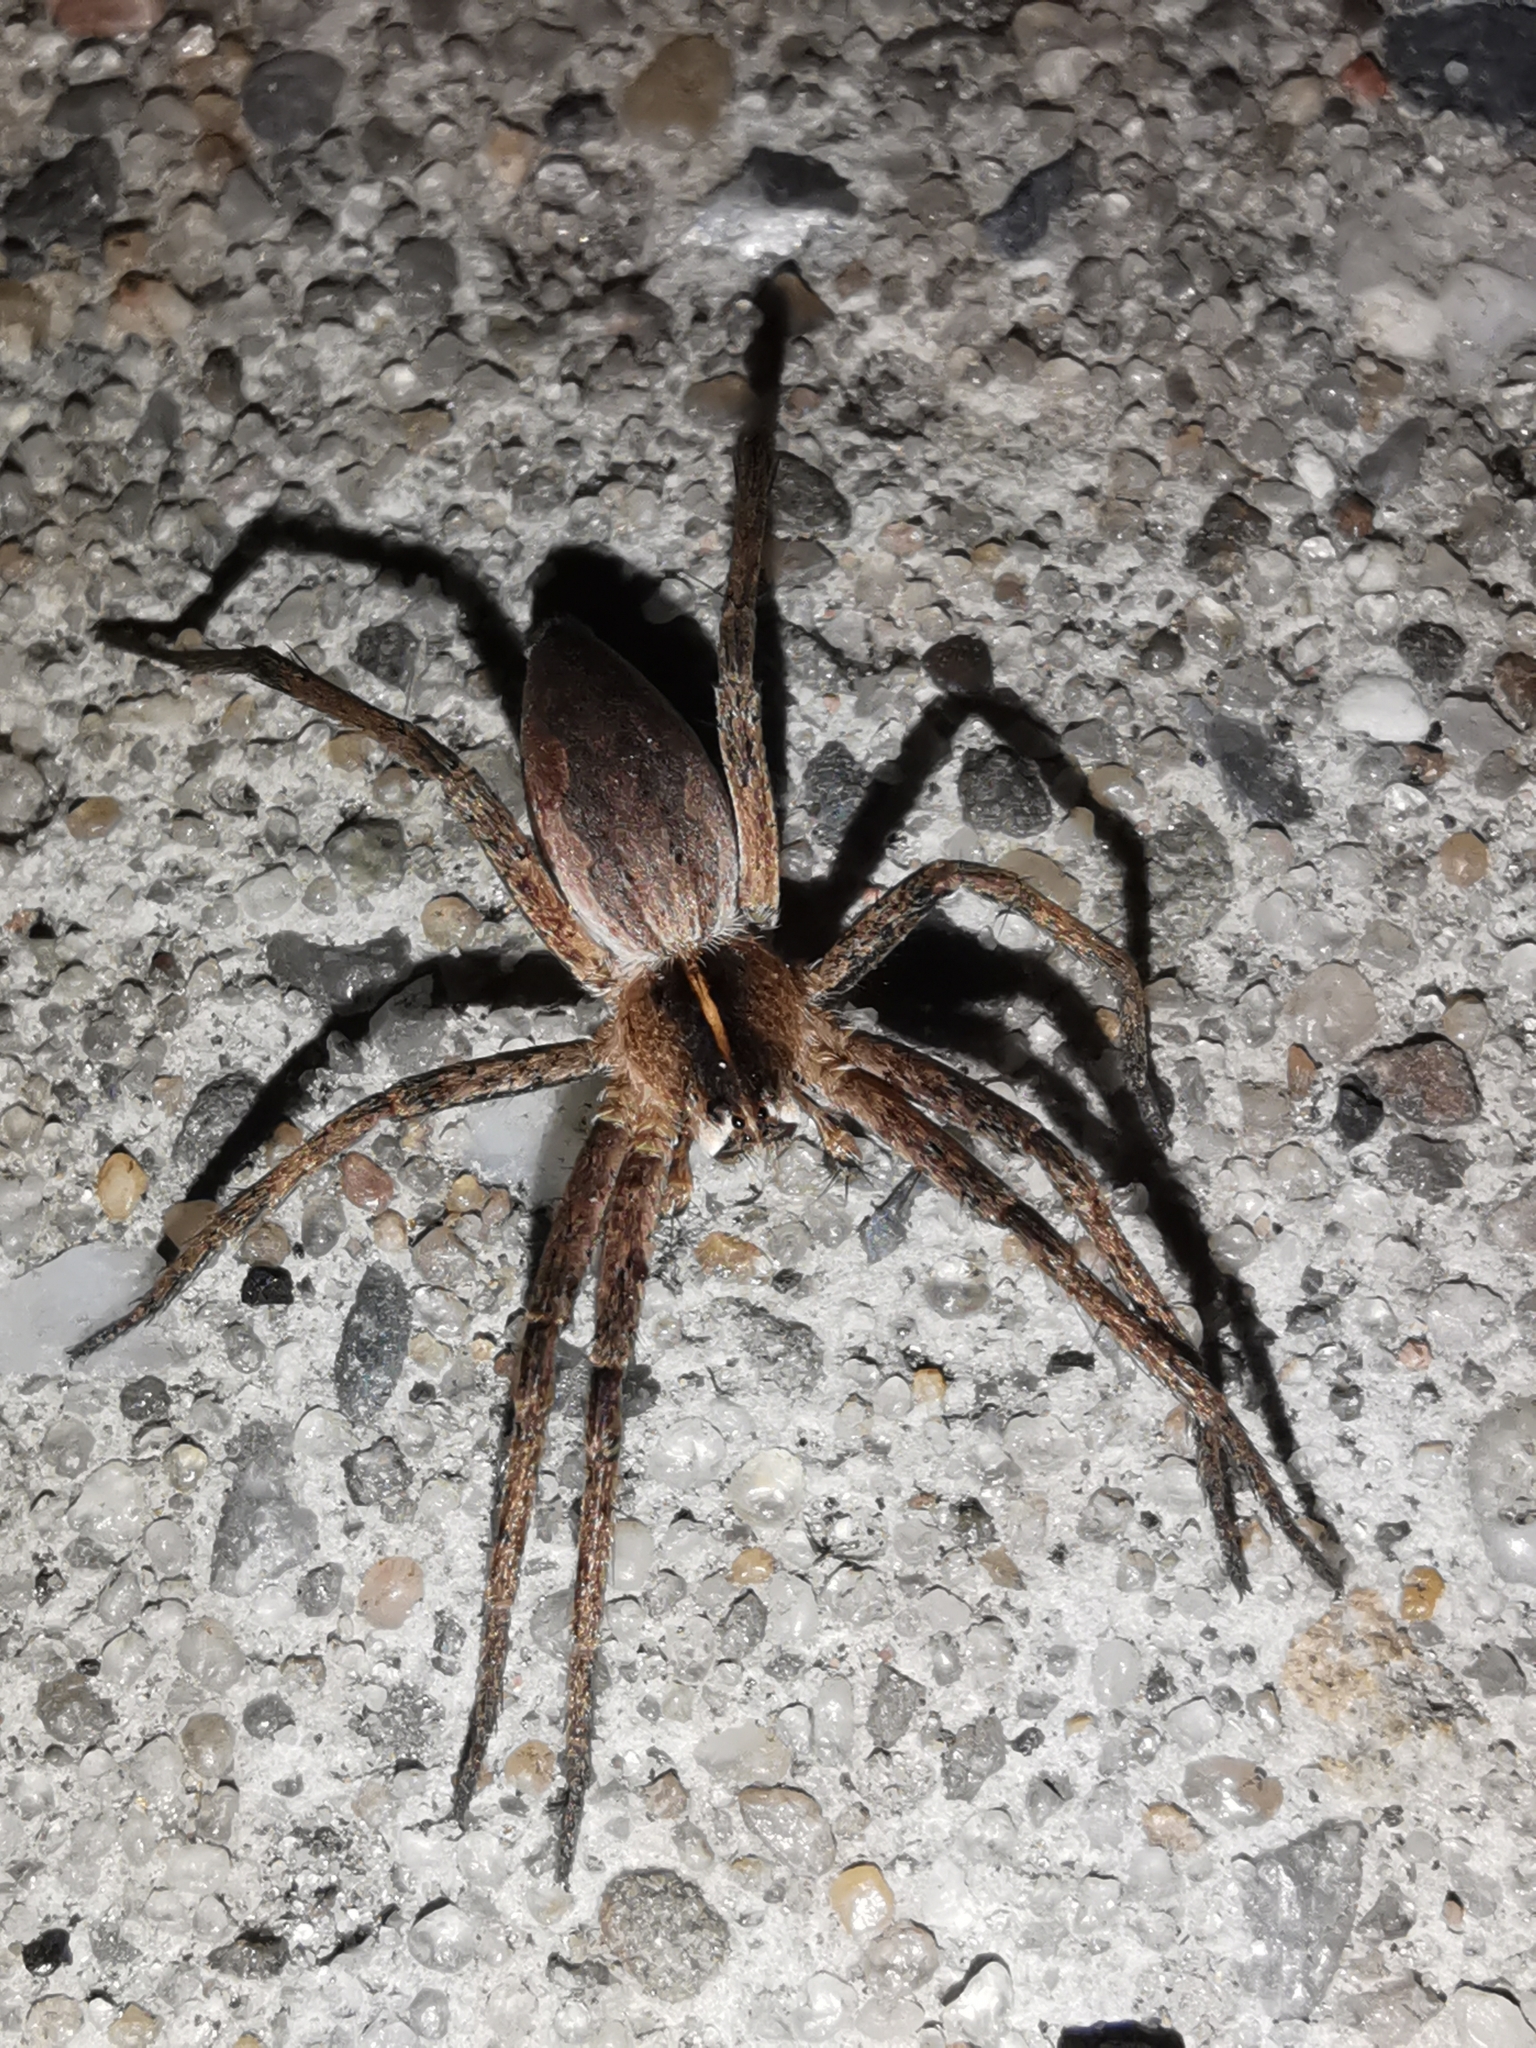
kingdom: Animalia
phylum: Arthropoda
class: Arachnida
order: Araneae
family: Pisauridae
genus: Pisaura
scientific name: Pisaura mirabilis
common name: Tent spider
